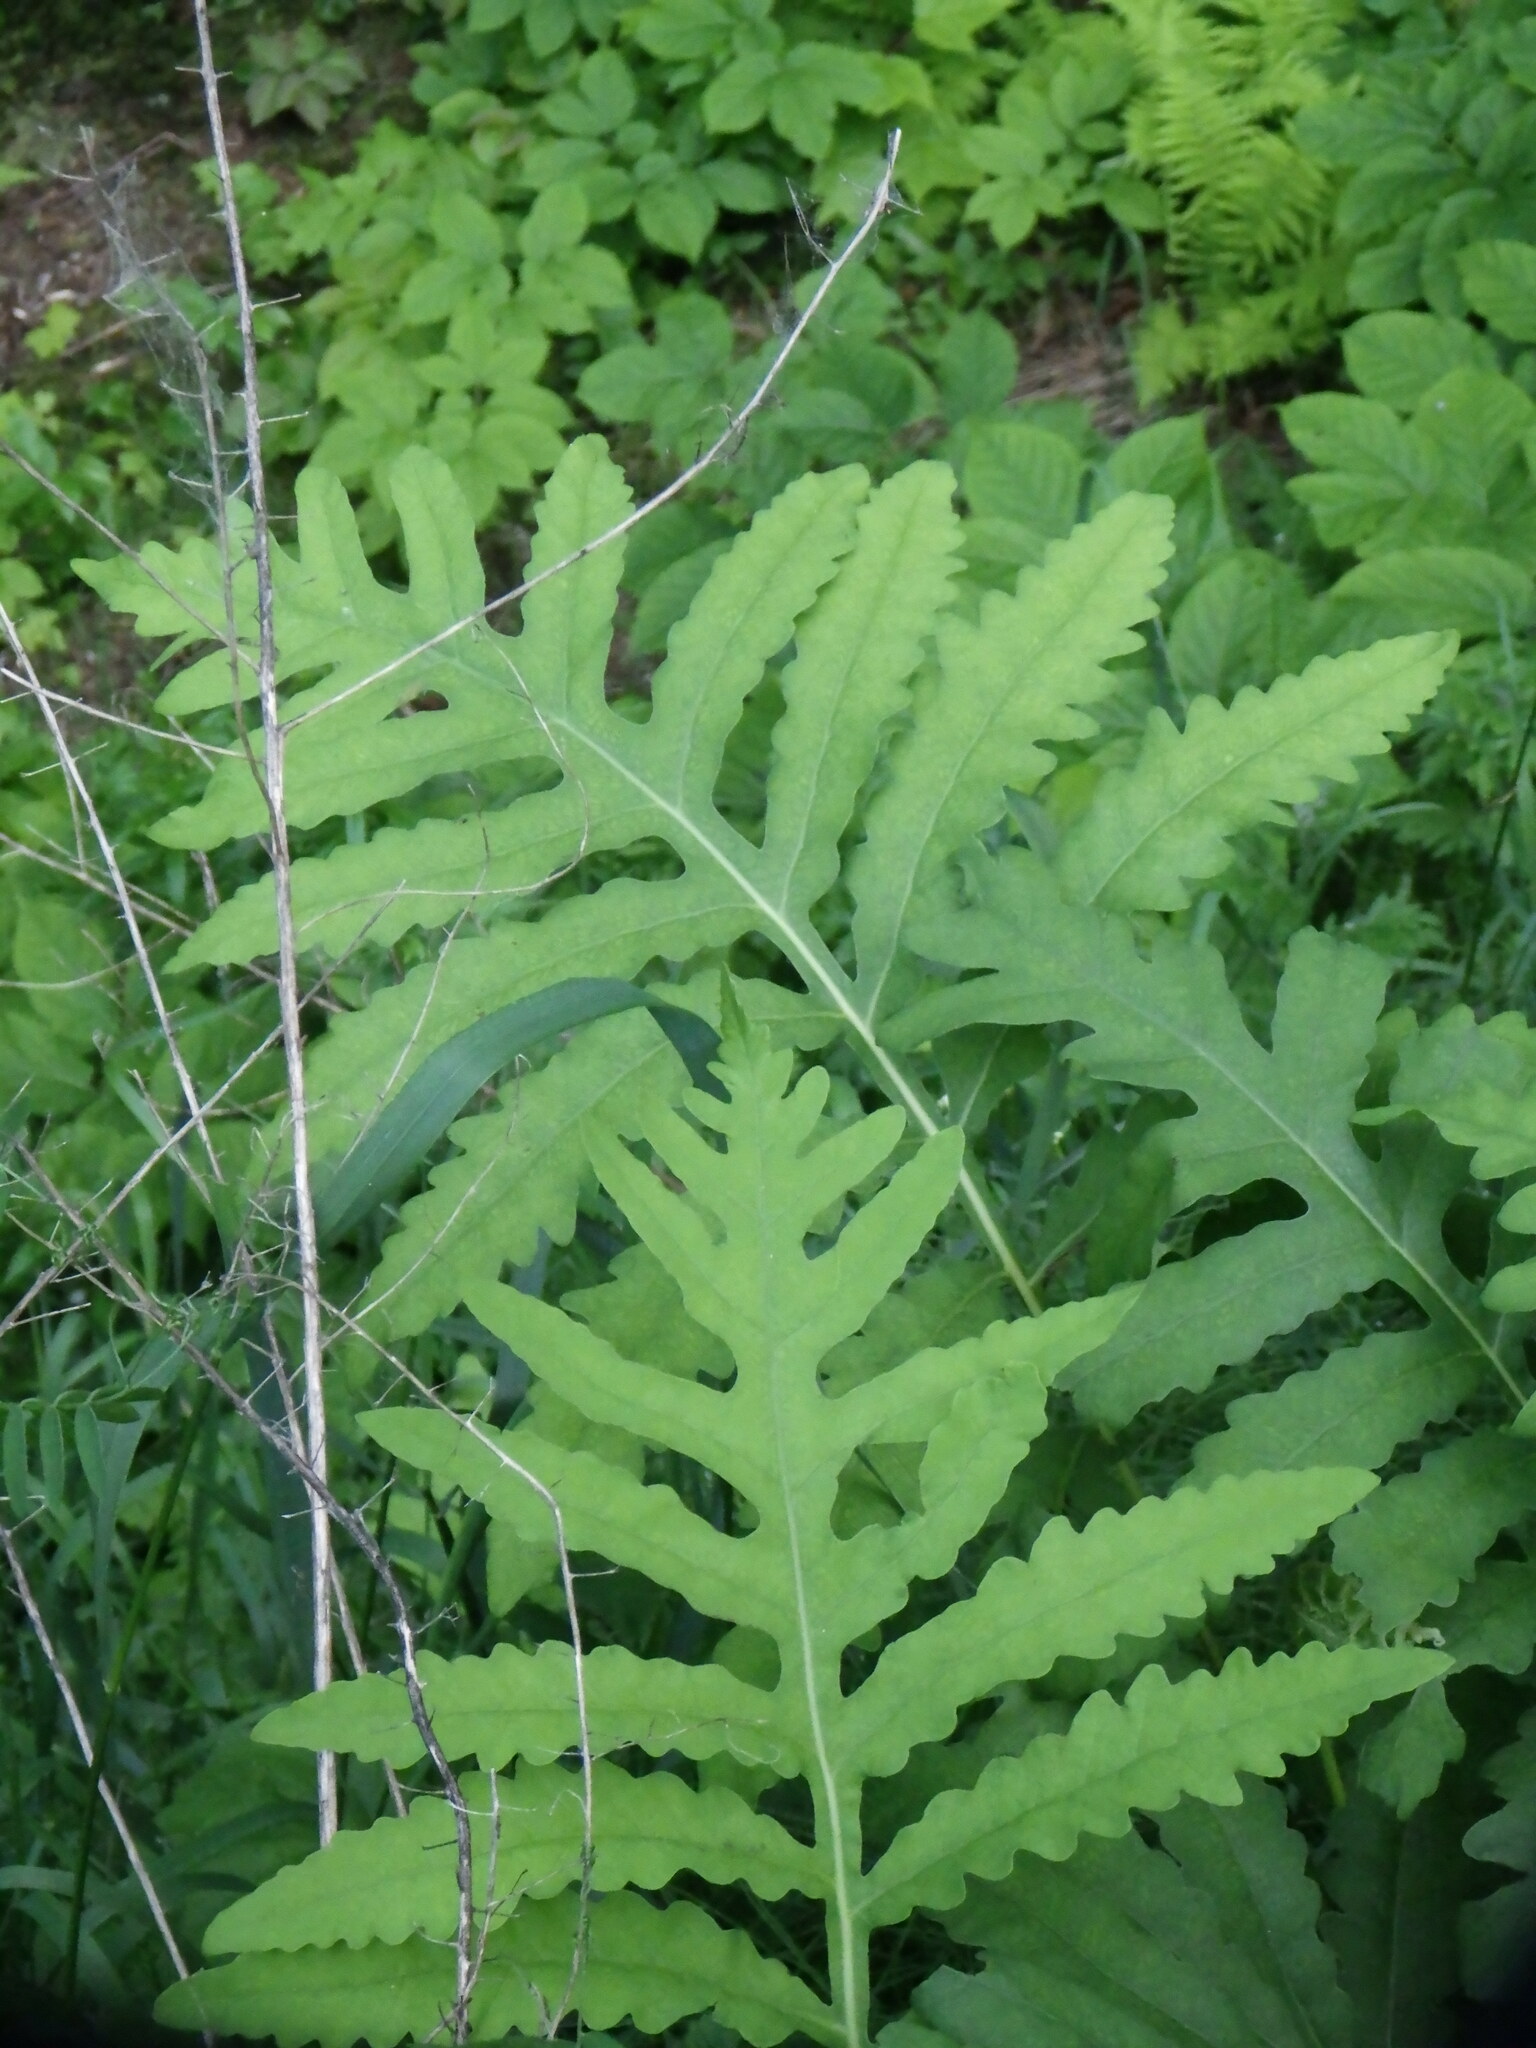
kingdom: Plantae
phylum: Tracheophyta
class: Polypodiopsida
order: Polypodiales
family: Onocleaceae
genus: Onoclea
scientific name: Onoclea sensibilis
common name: Sensitive fern
